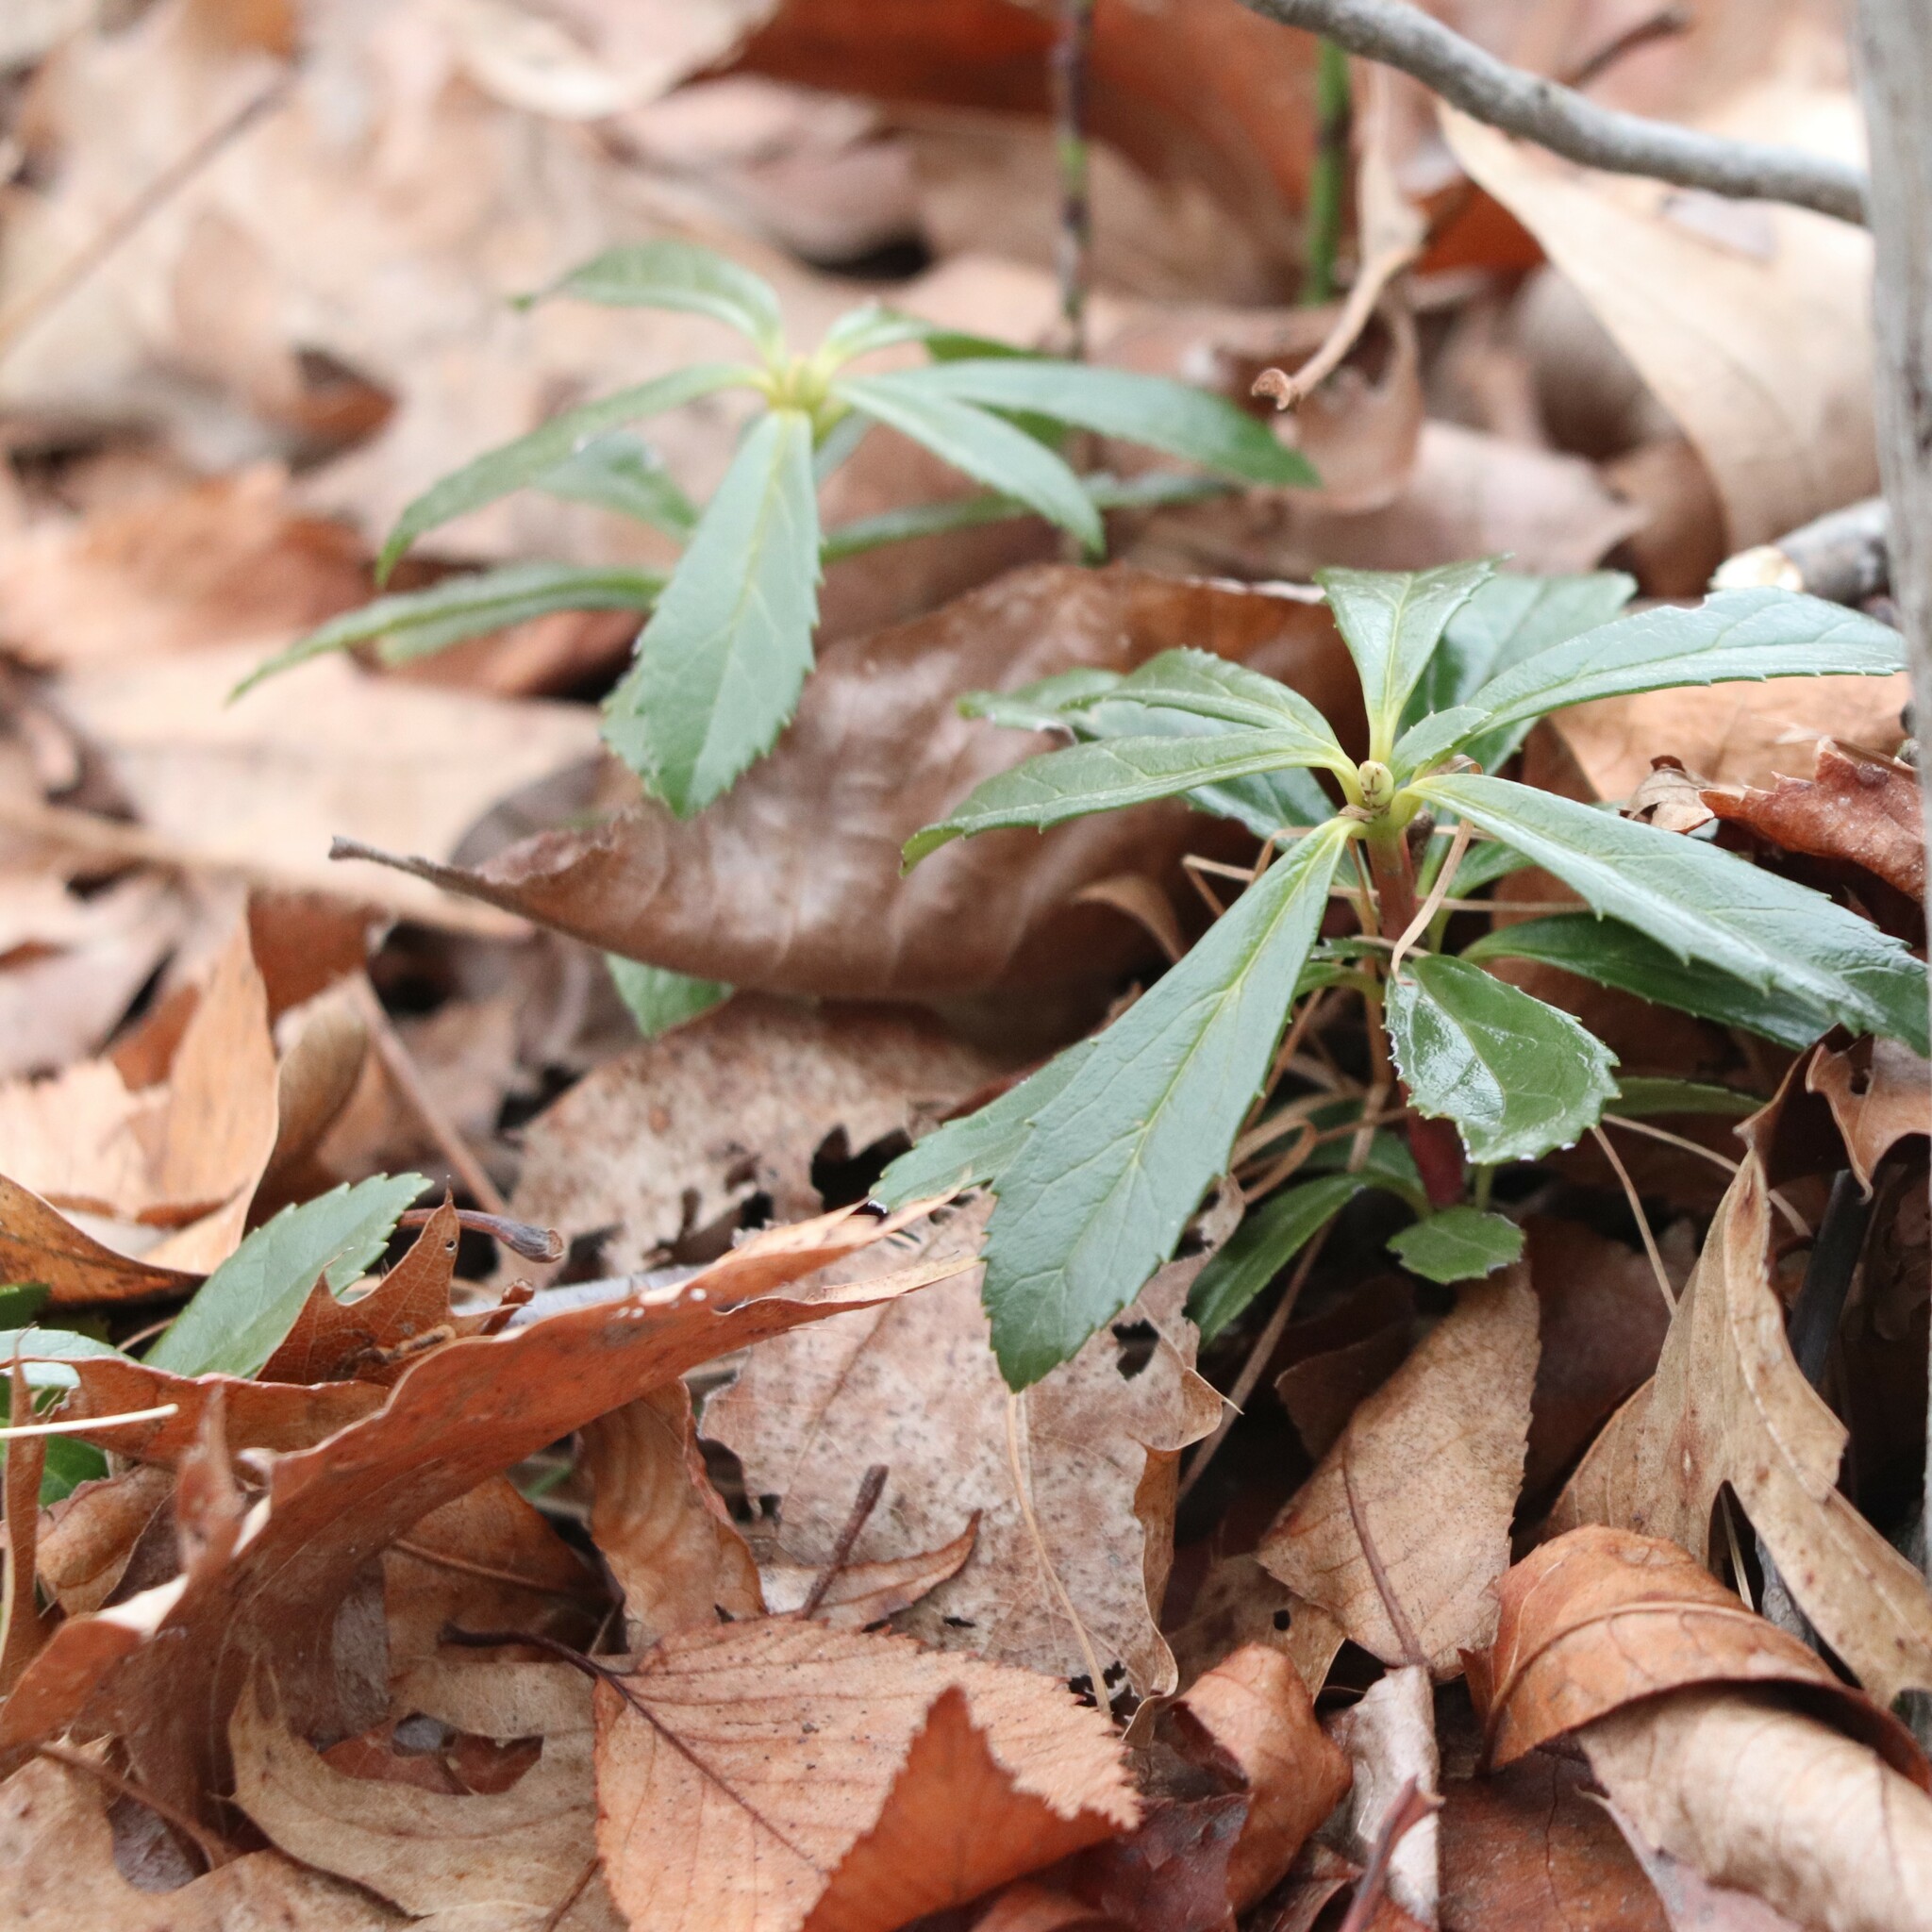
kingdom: Plantae
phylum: Tracheophyta
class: Magnoliopsida
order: Ericales
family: Ericaceae
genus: Chimaphila
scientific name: Chimaphila umbellata
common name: Pipsissewa
